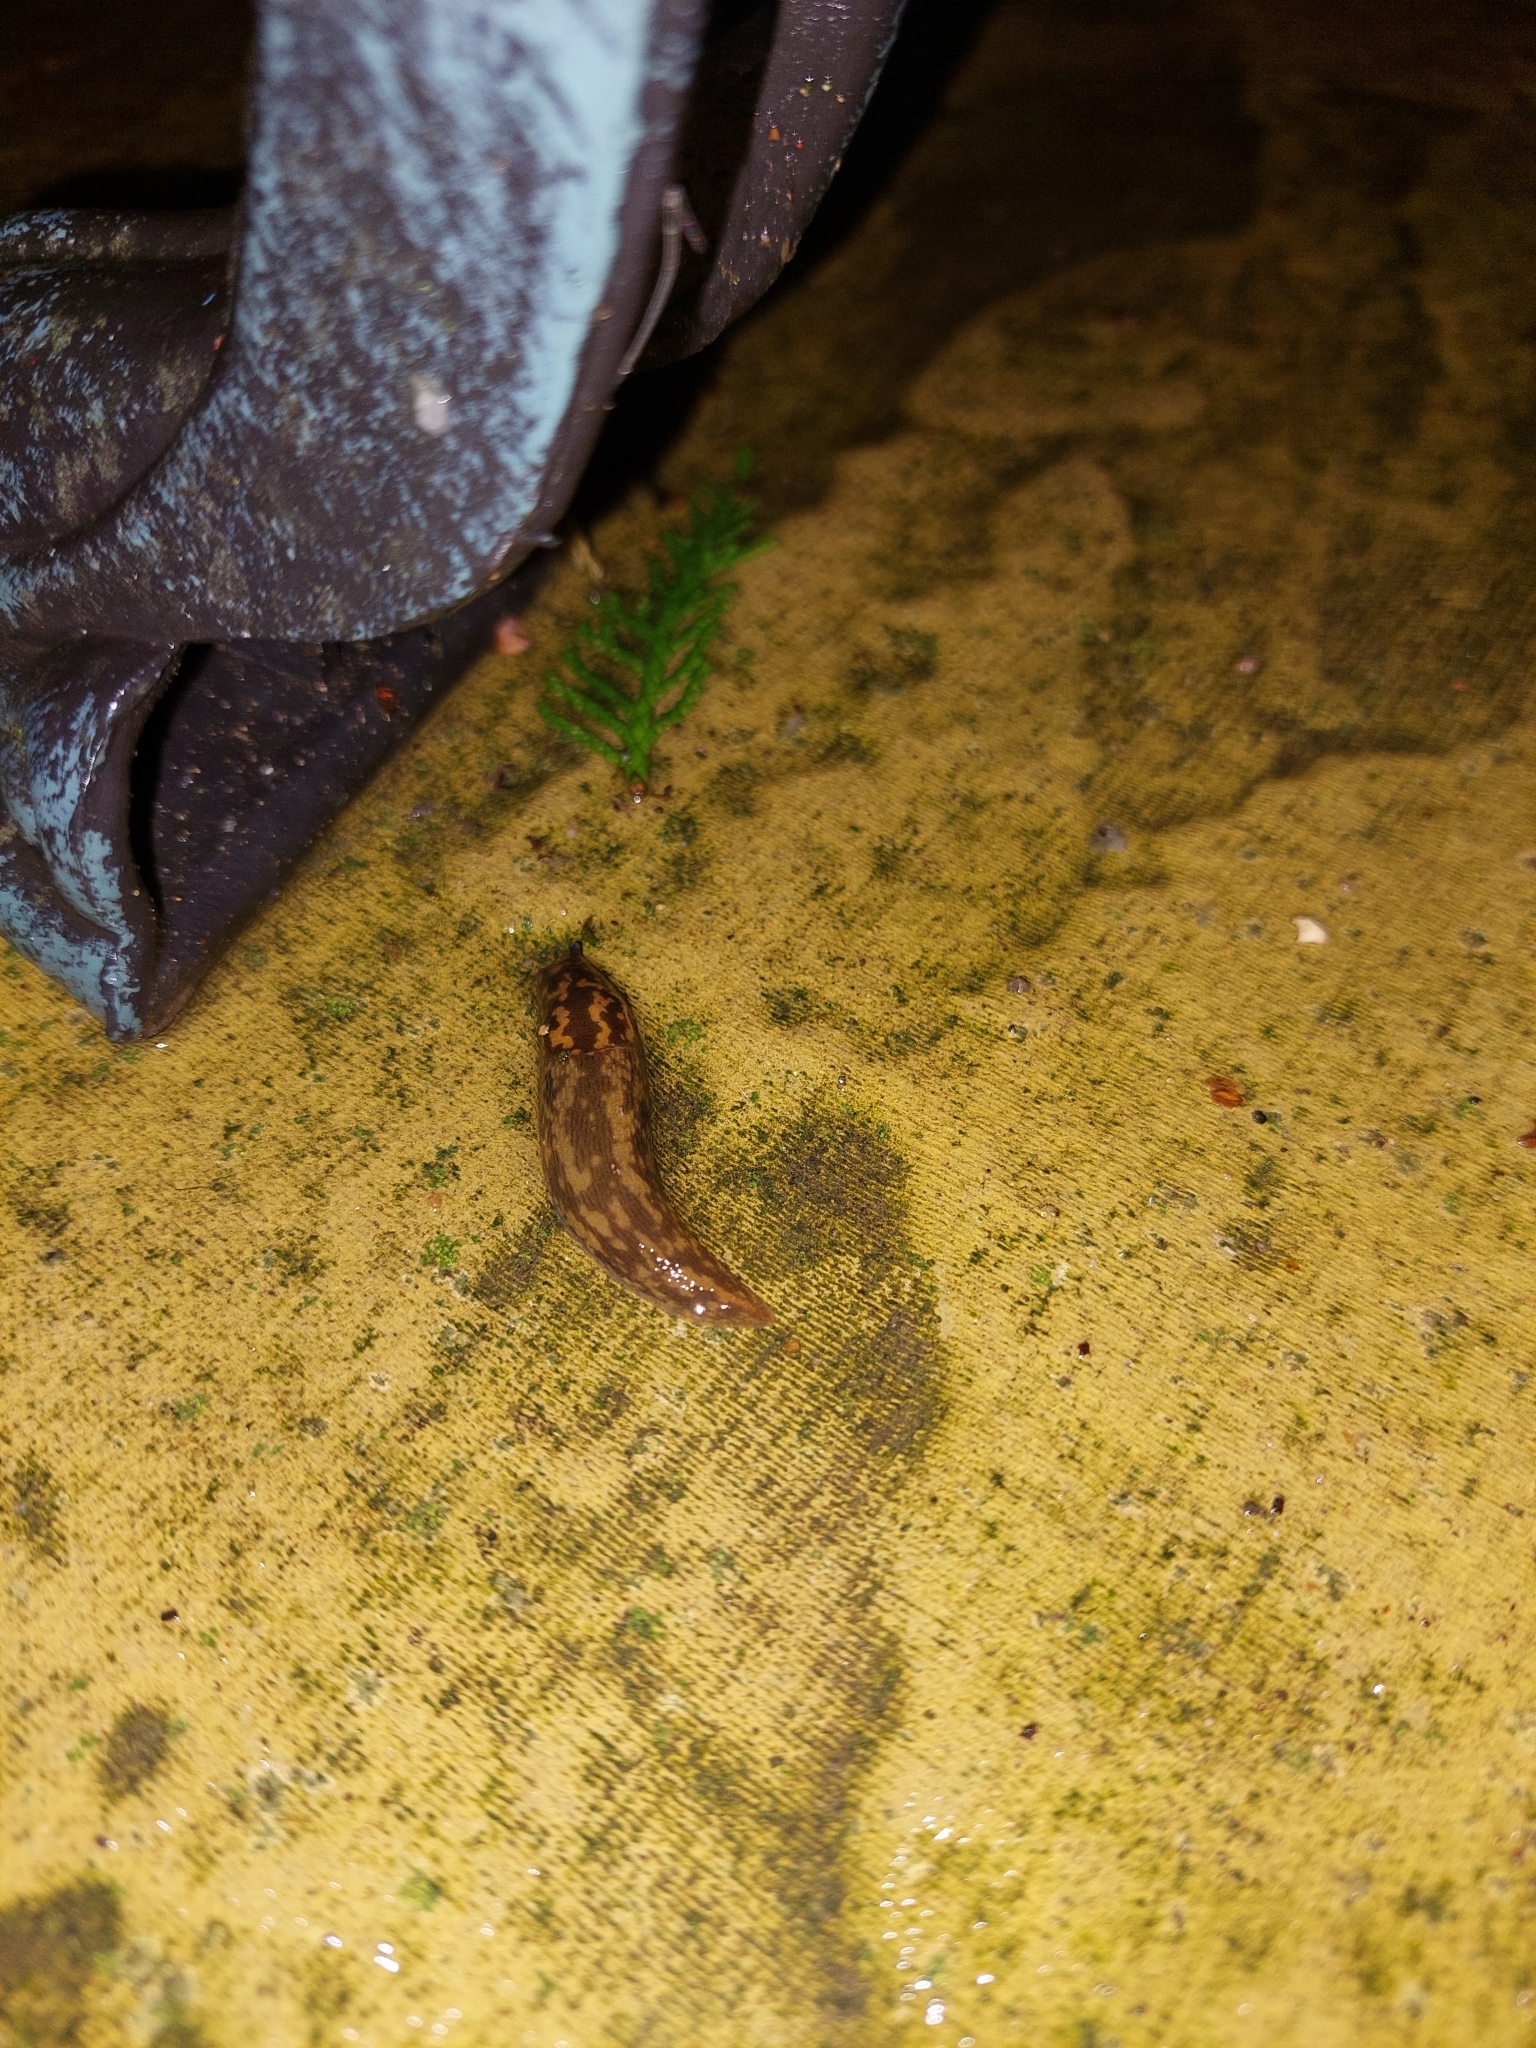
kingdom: Animalia
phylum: Mollusca
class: Gastropoda
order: Stylommatophora
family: Limacidae
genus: Limacus
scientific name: Limacus maculatus
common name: Irish yellow slug
